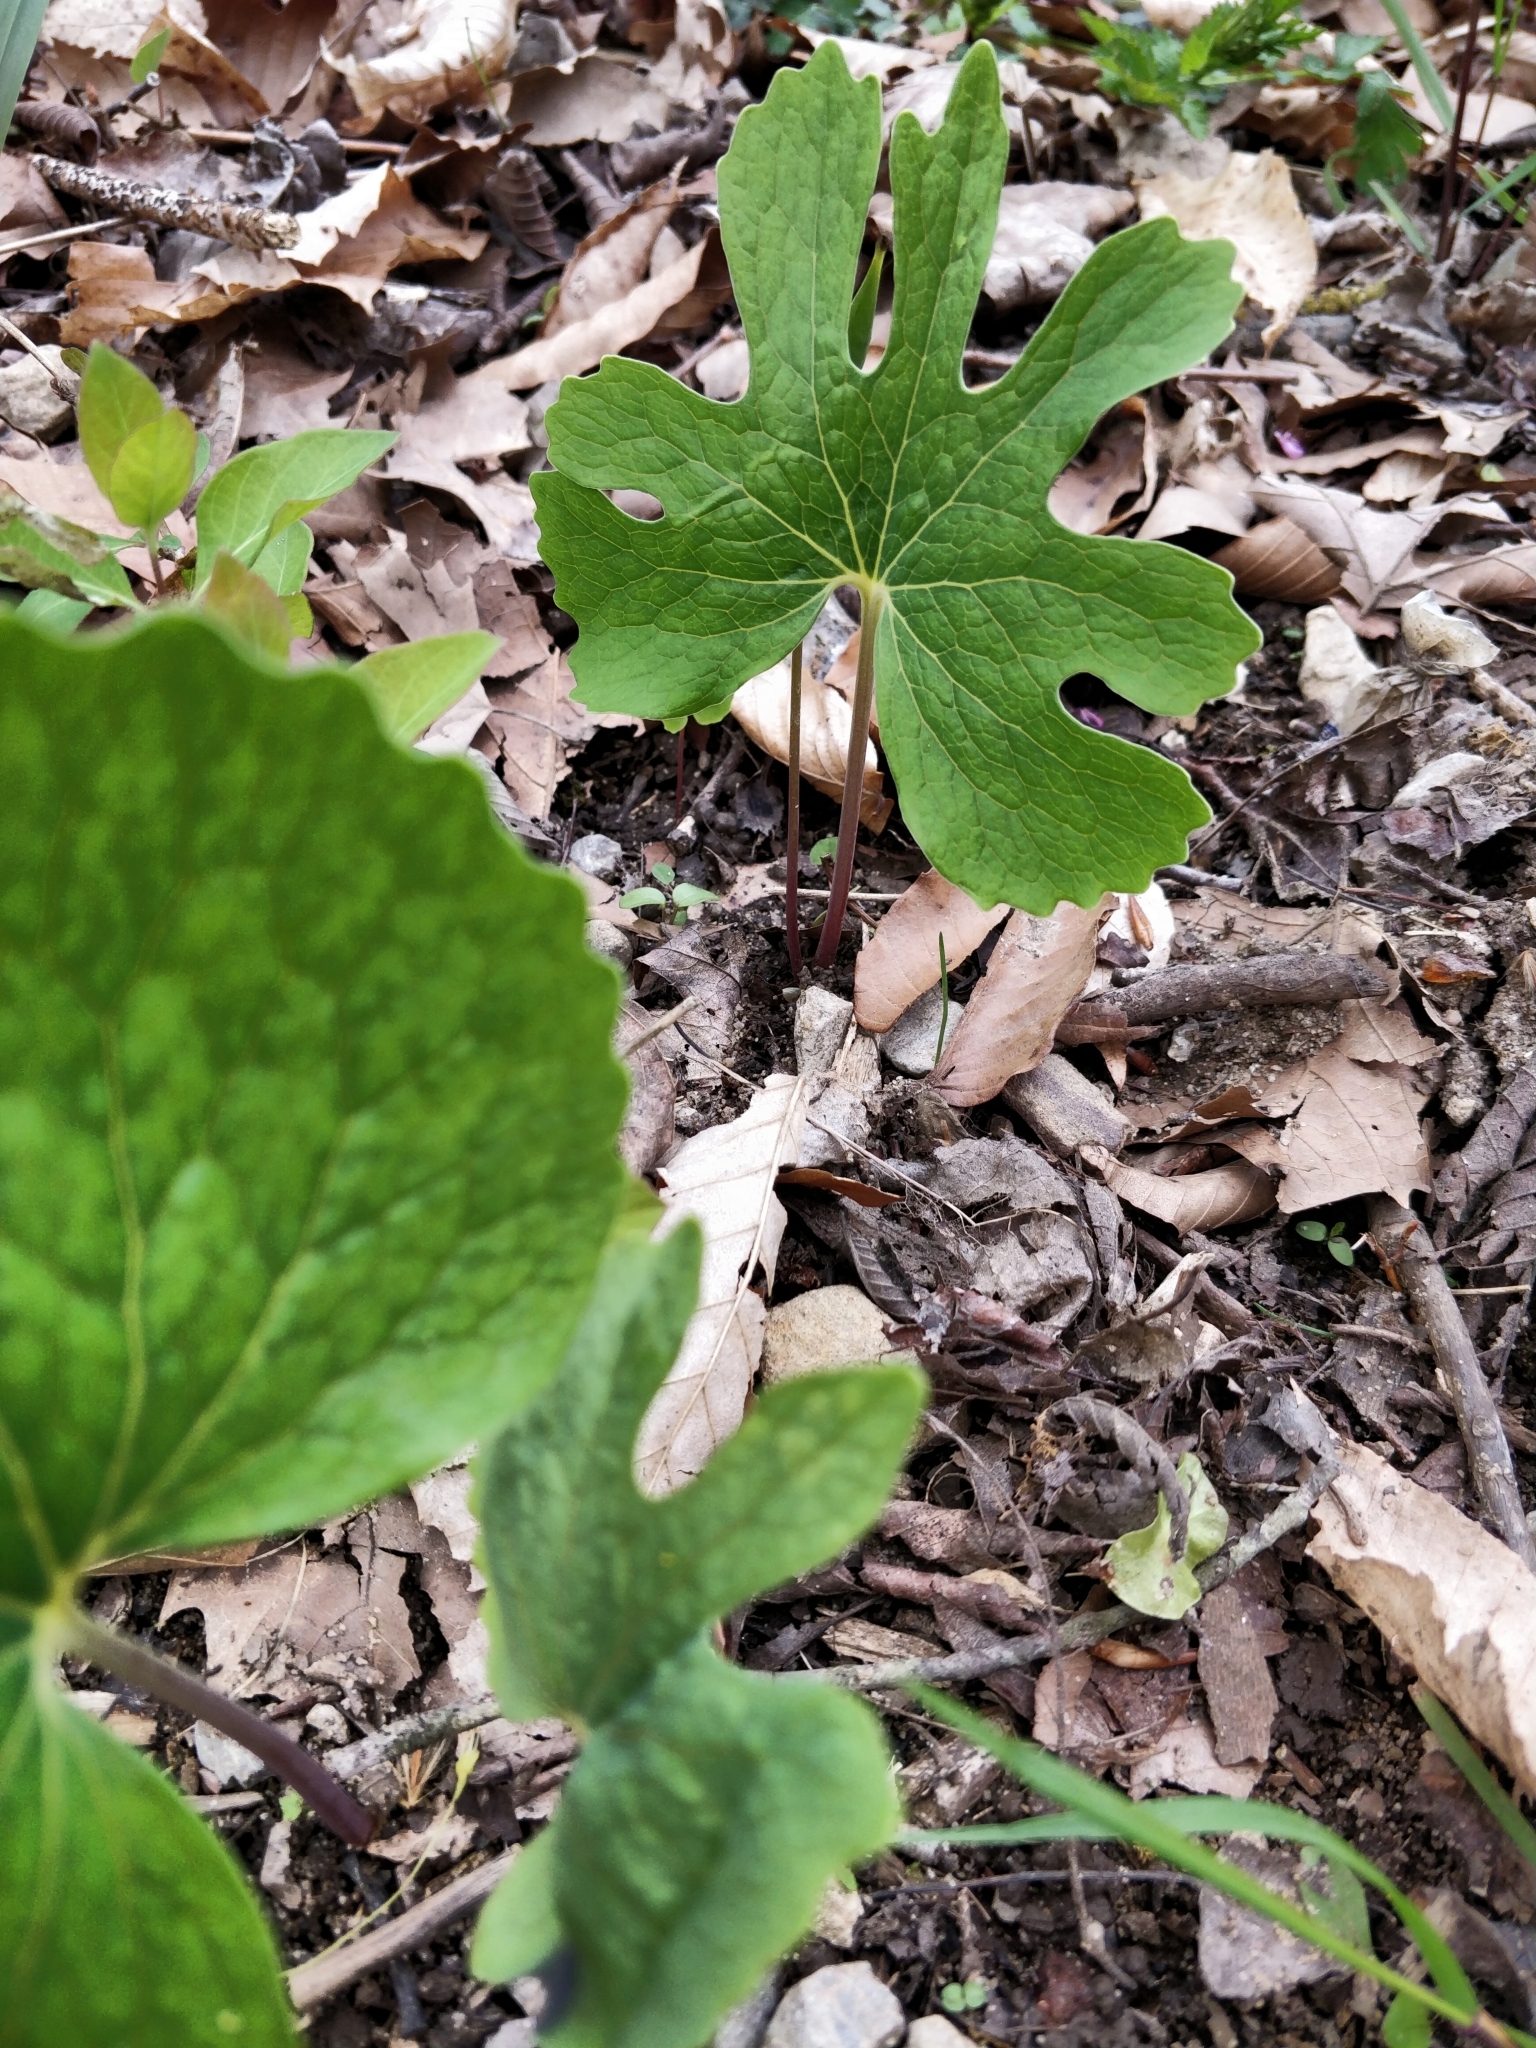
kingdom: Plantae
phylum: Tracheophyta
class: Magnoliopsida
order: Ranunculales
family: Papaveraceae
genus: Sanguinaria
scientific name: Sanguinaria canadensis
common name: Bloodroot
